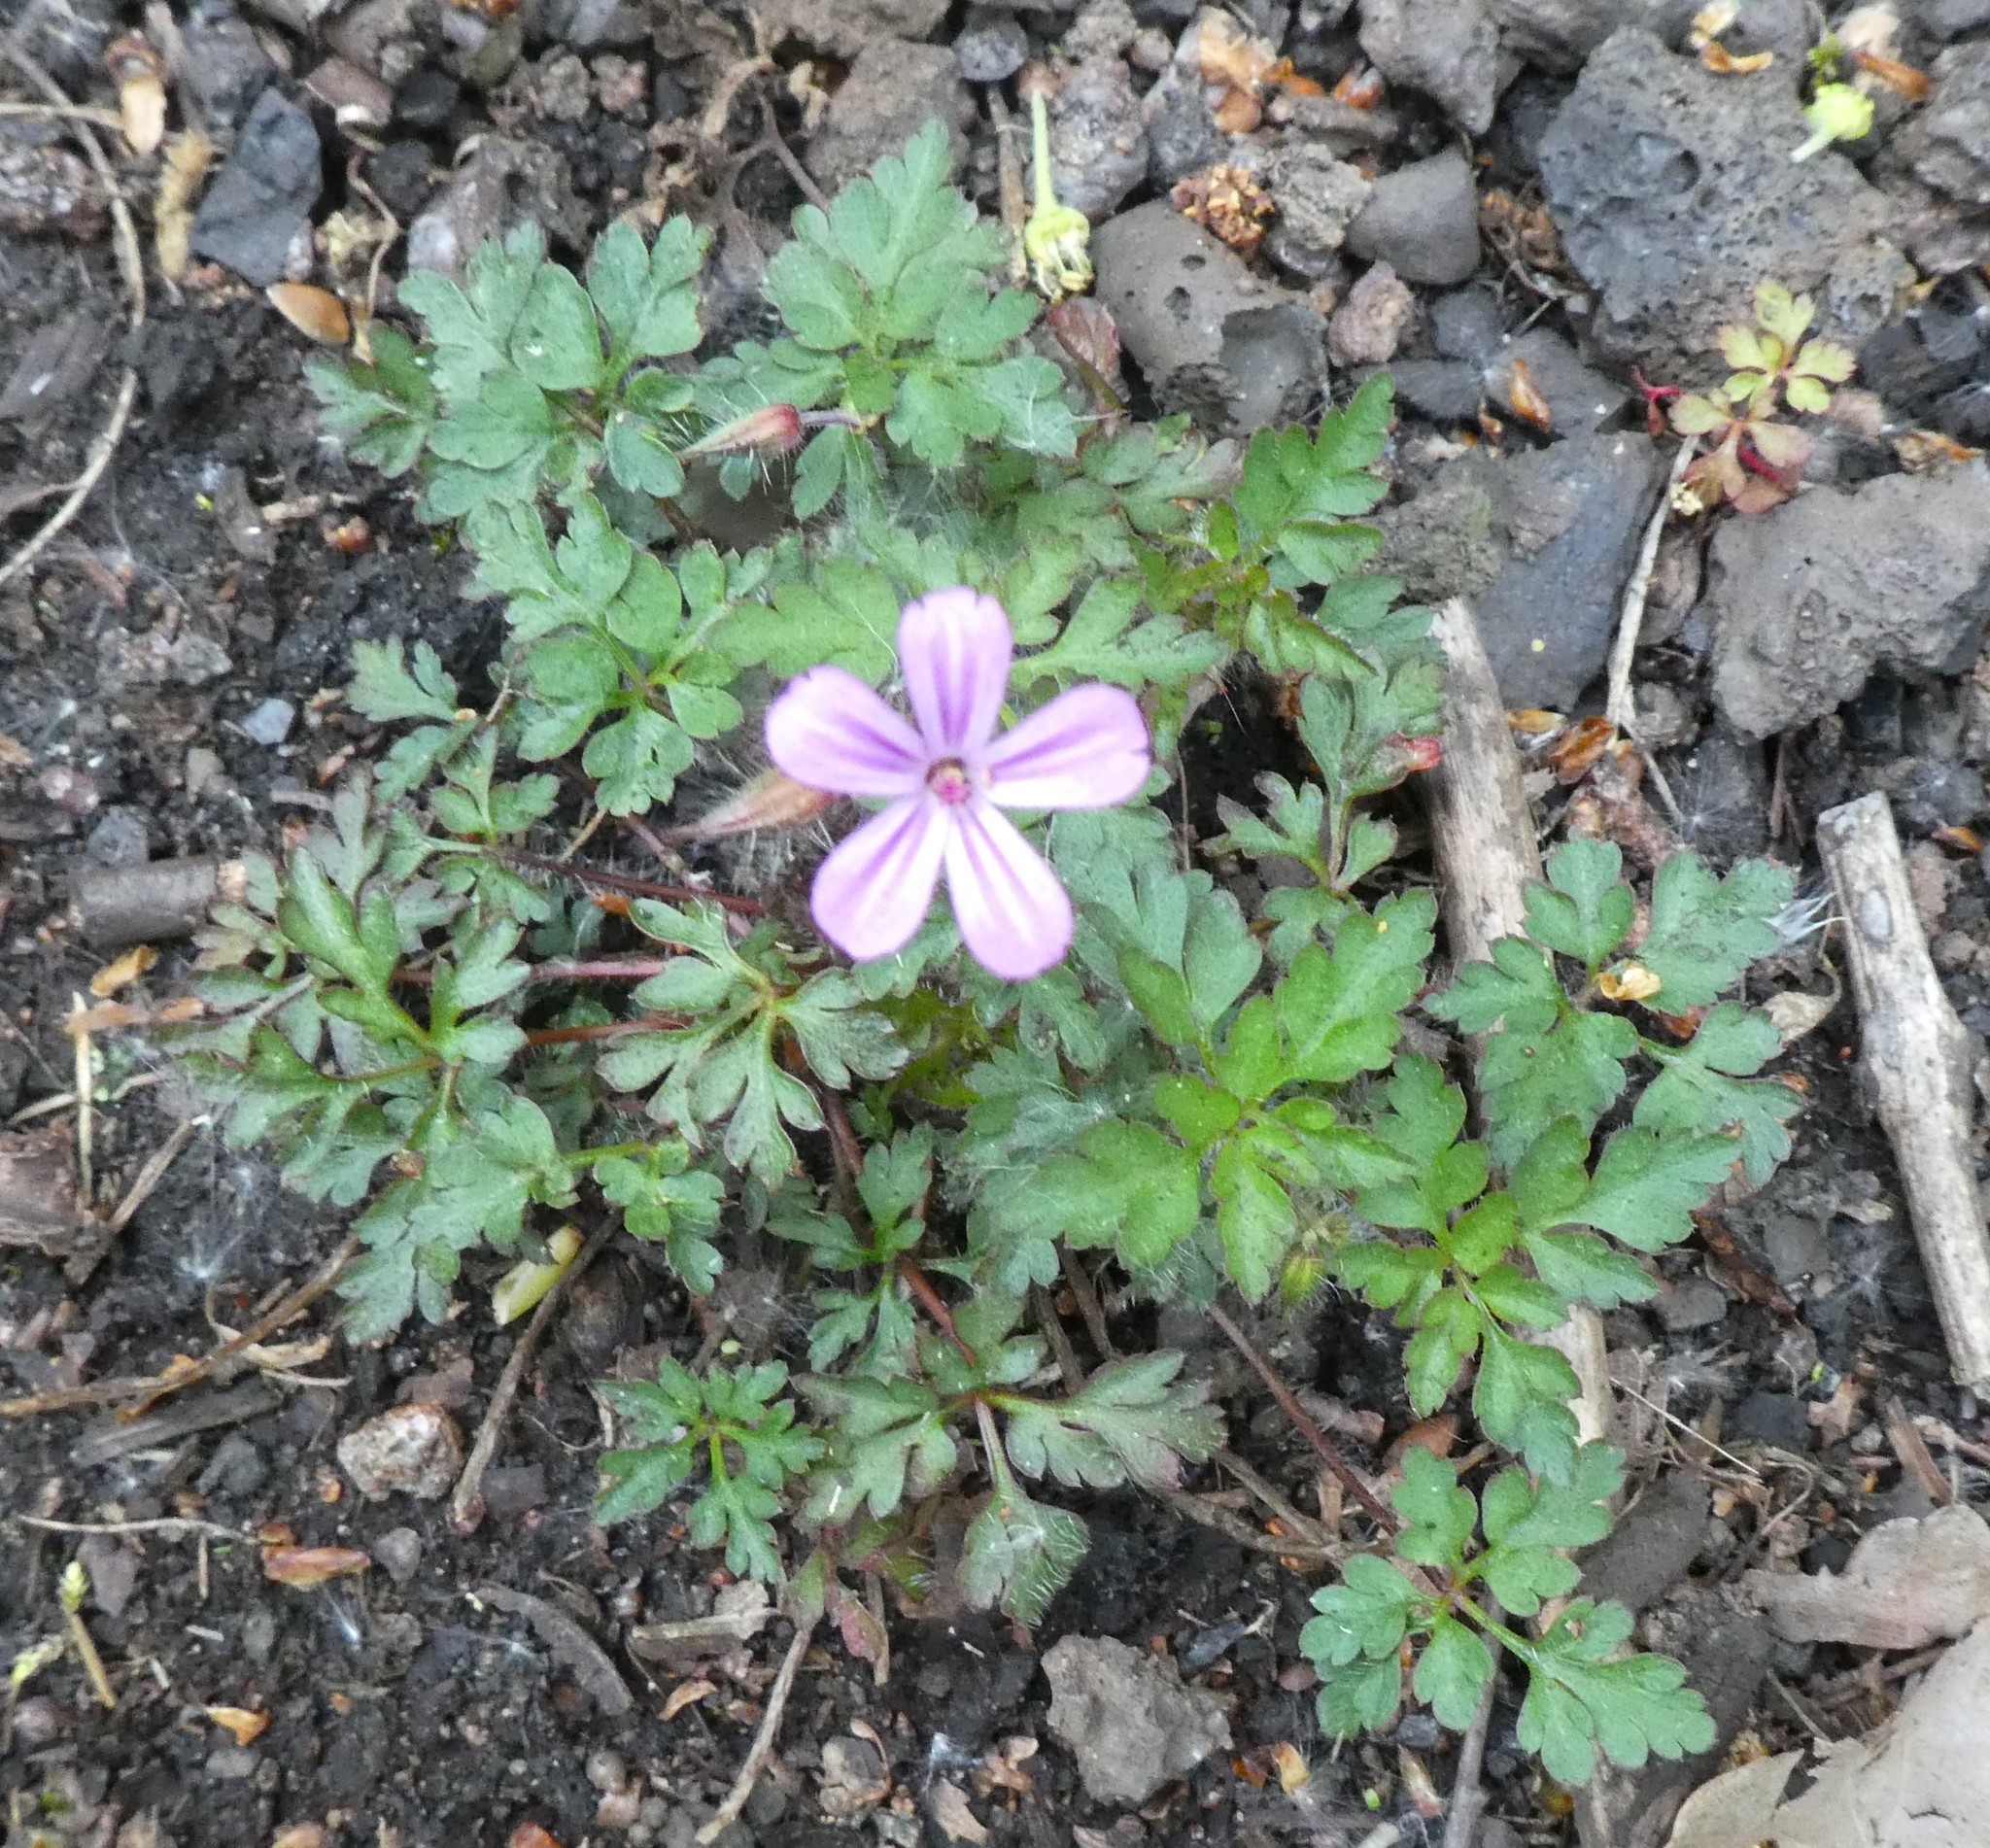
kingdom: Plantae
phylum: Tracheophyta
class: Magnoliopsida
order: Geraniales
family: Geraniaceae
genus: Geranium
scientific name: Geranium robertianum
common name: Herb-robert
